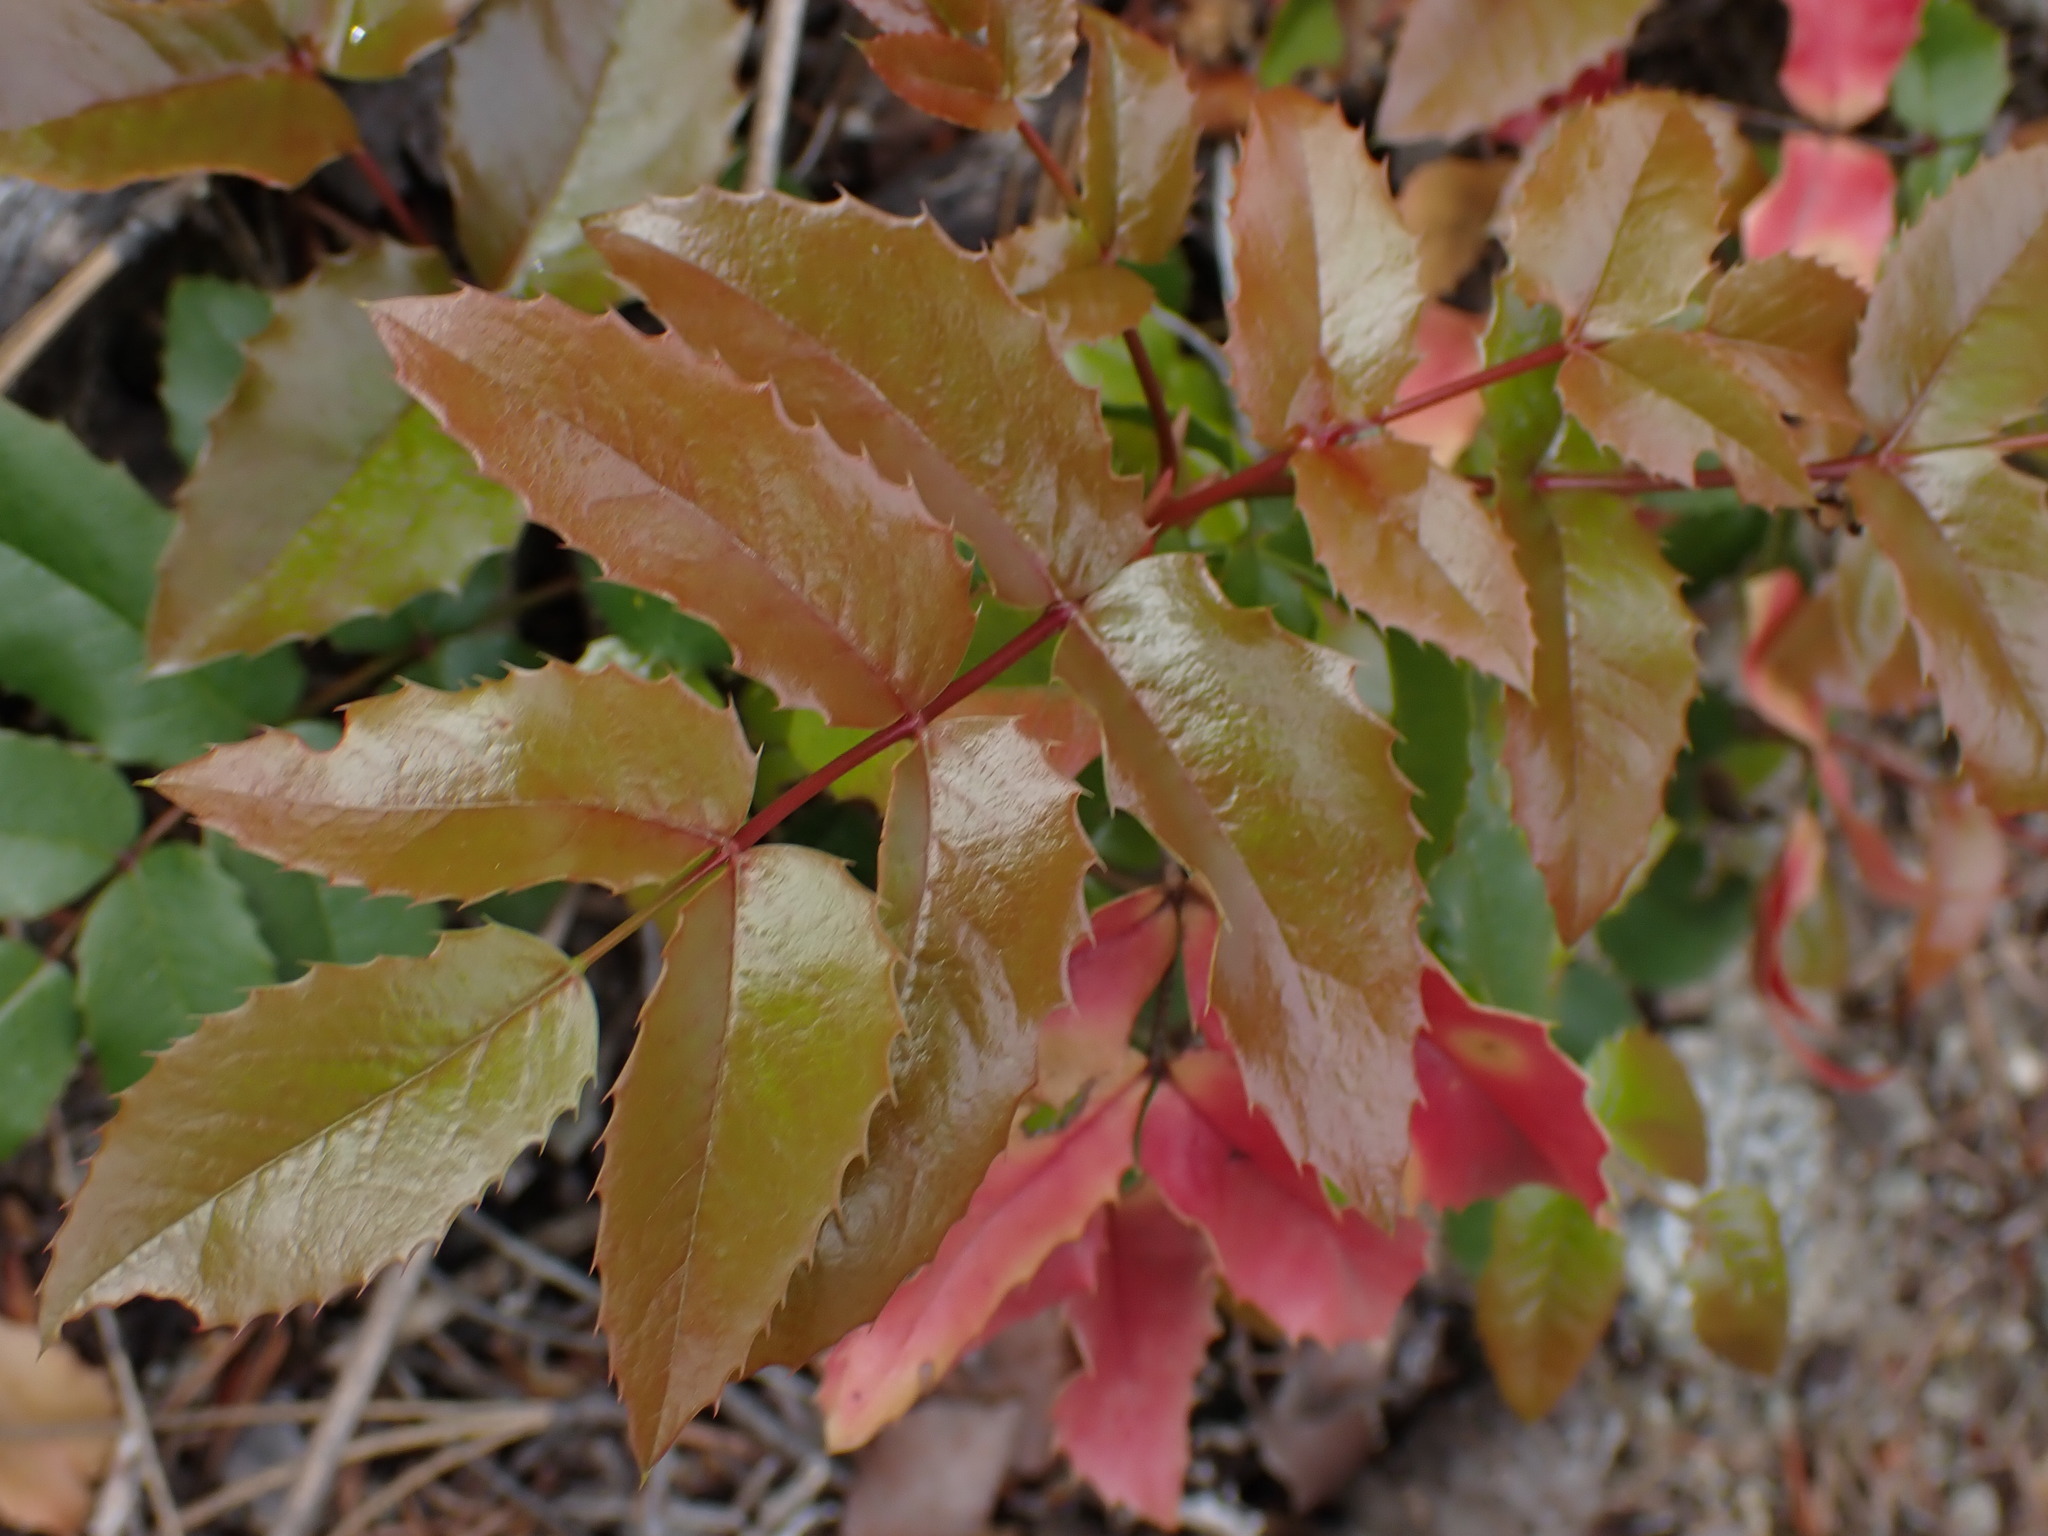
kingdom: Plantae
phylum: Tracheophyta
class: Magnoliopsida
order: Ranunculales
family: Berberidaceae
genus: Mahonia
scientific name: Mahonia aquifolium
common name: Oregon-grape
